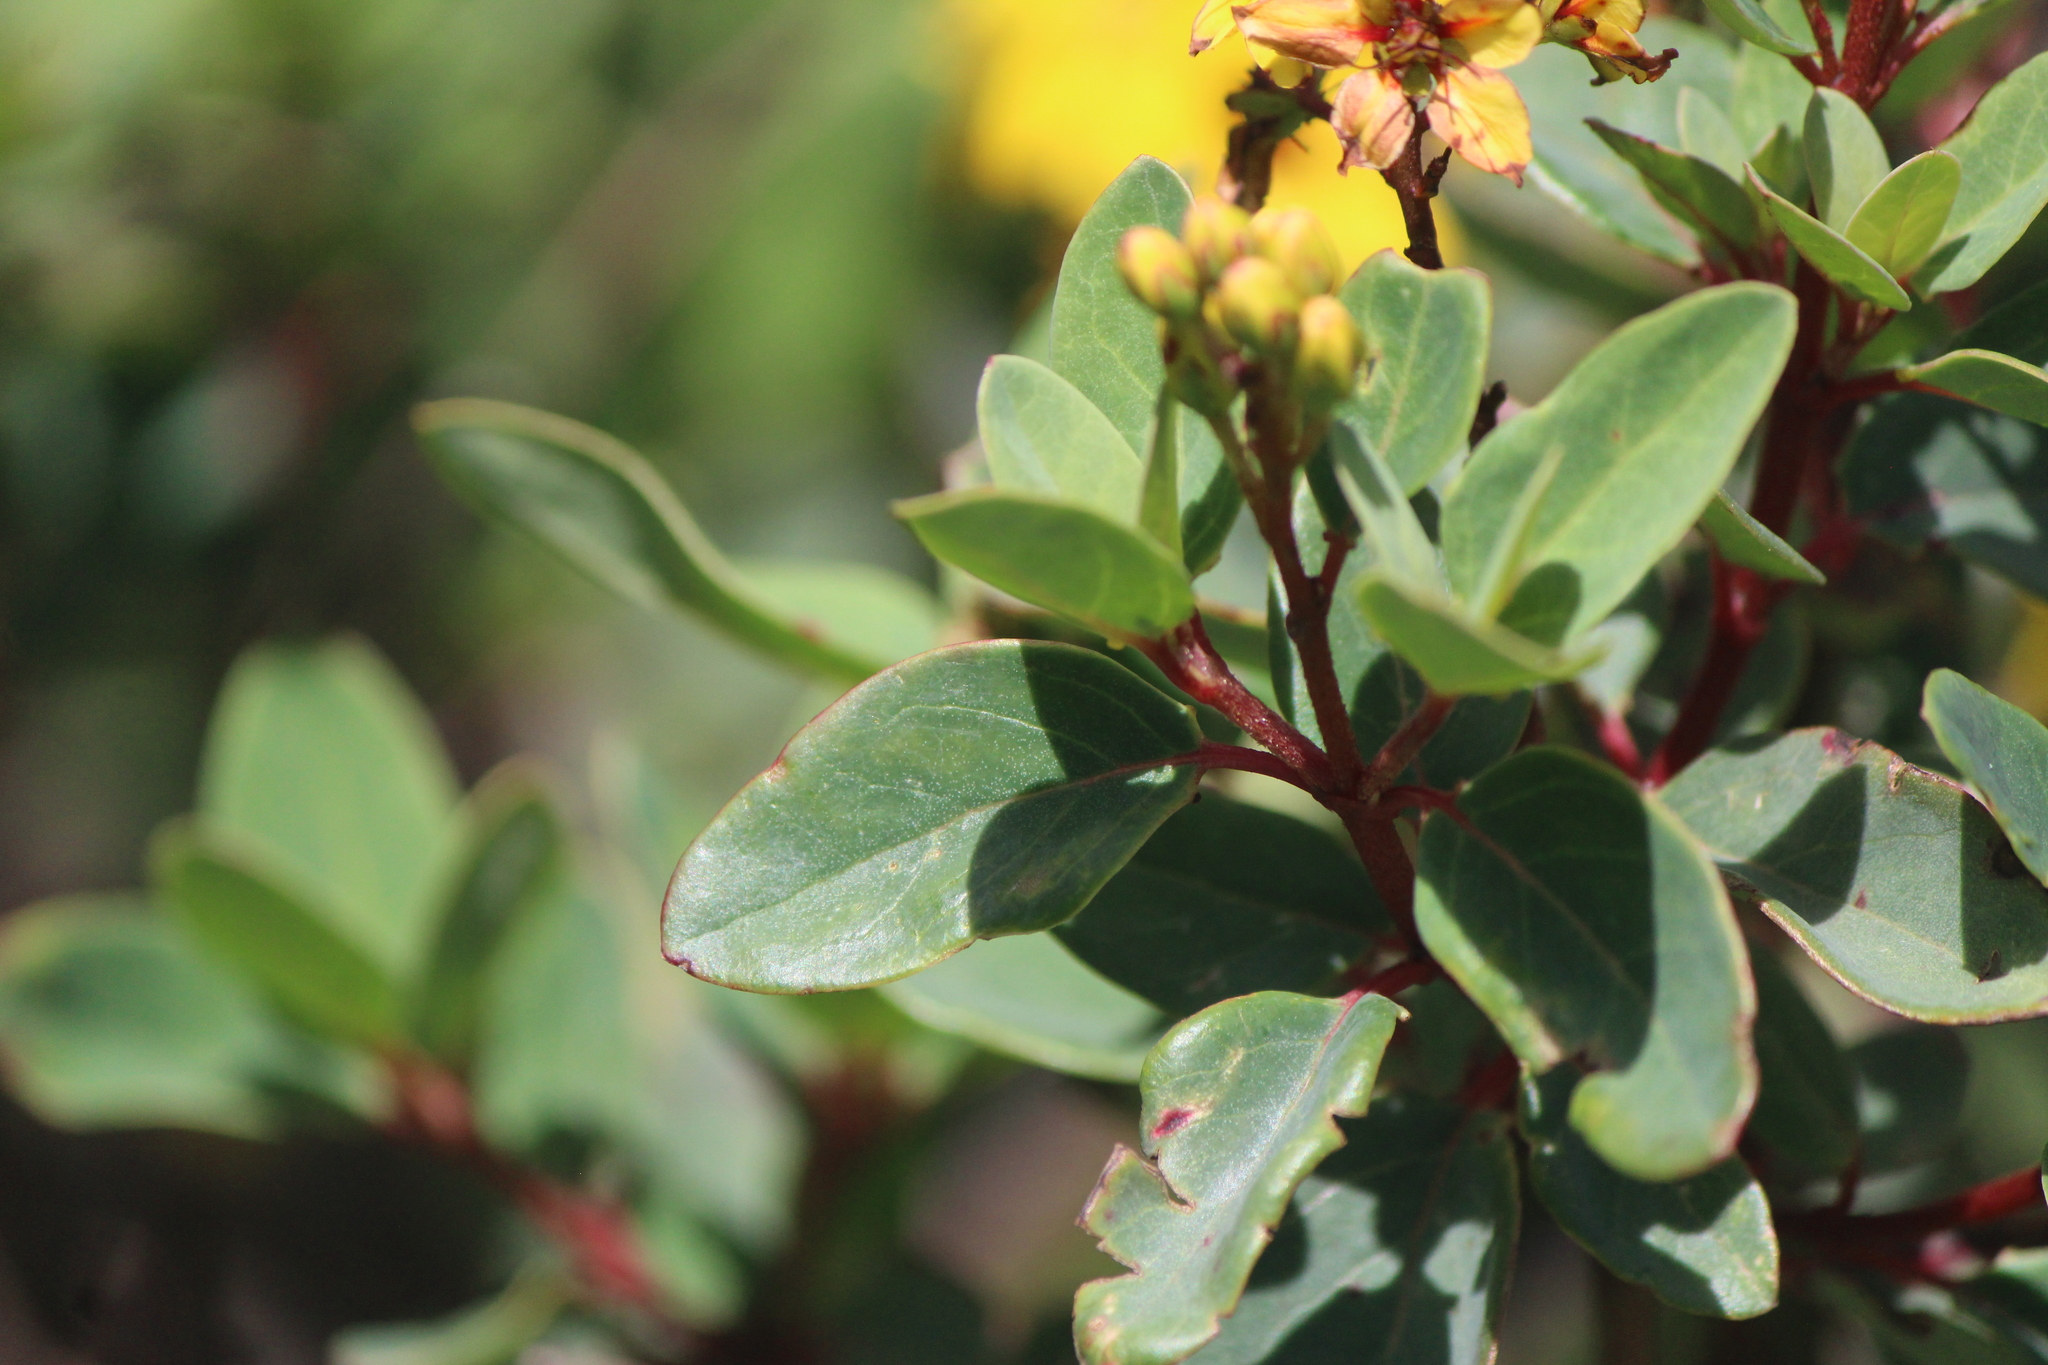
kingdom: Plantae
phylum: Tracheophyta
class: Magnoliopsida
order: Malpighiales
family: Malpighiaceae
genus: Galphimia
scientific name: Galphimia glauca
